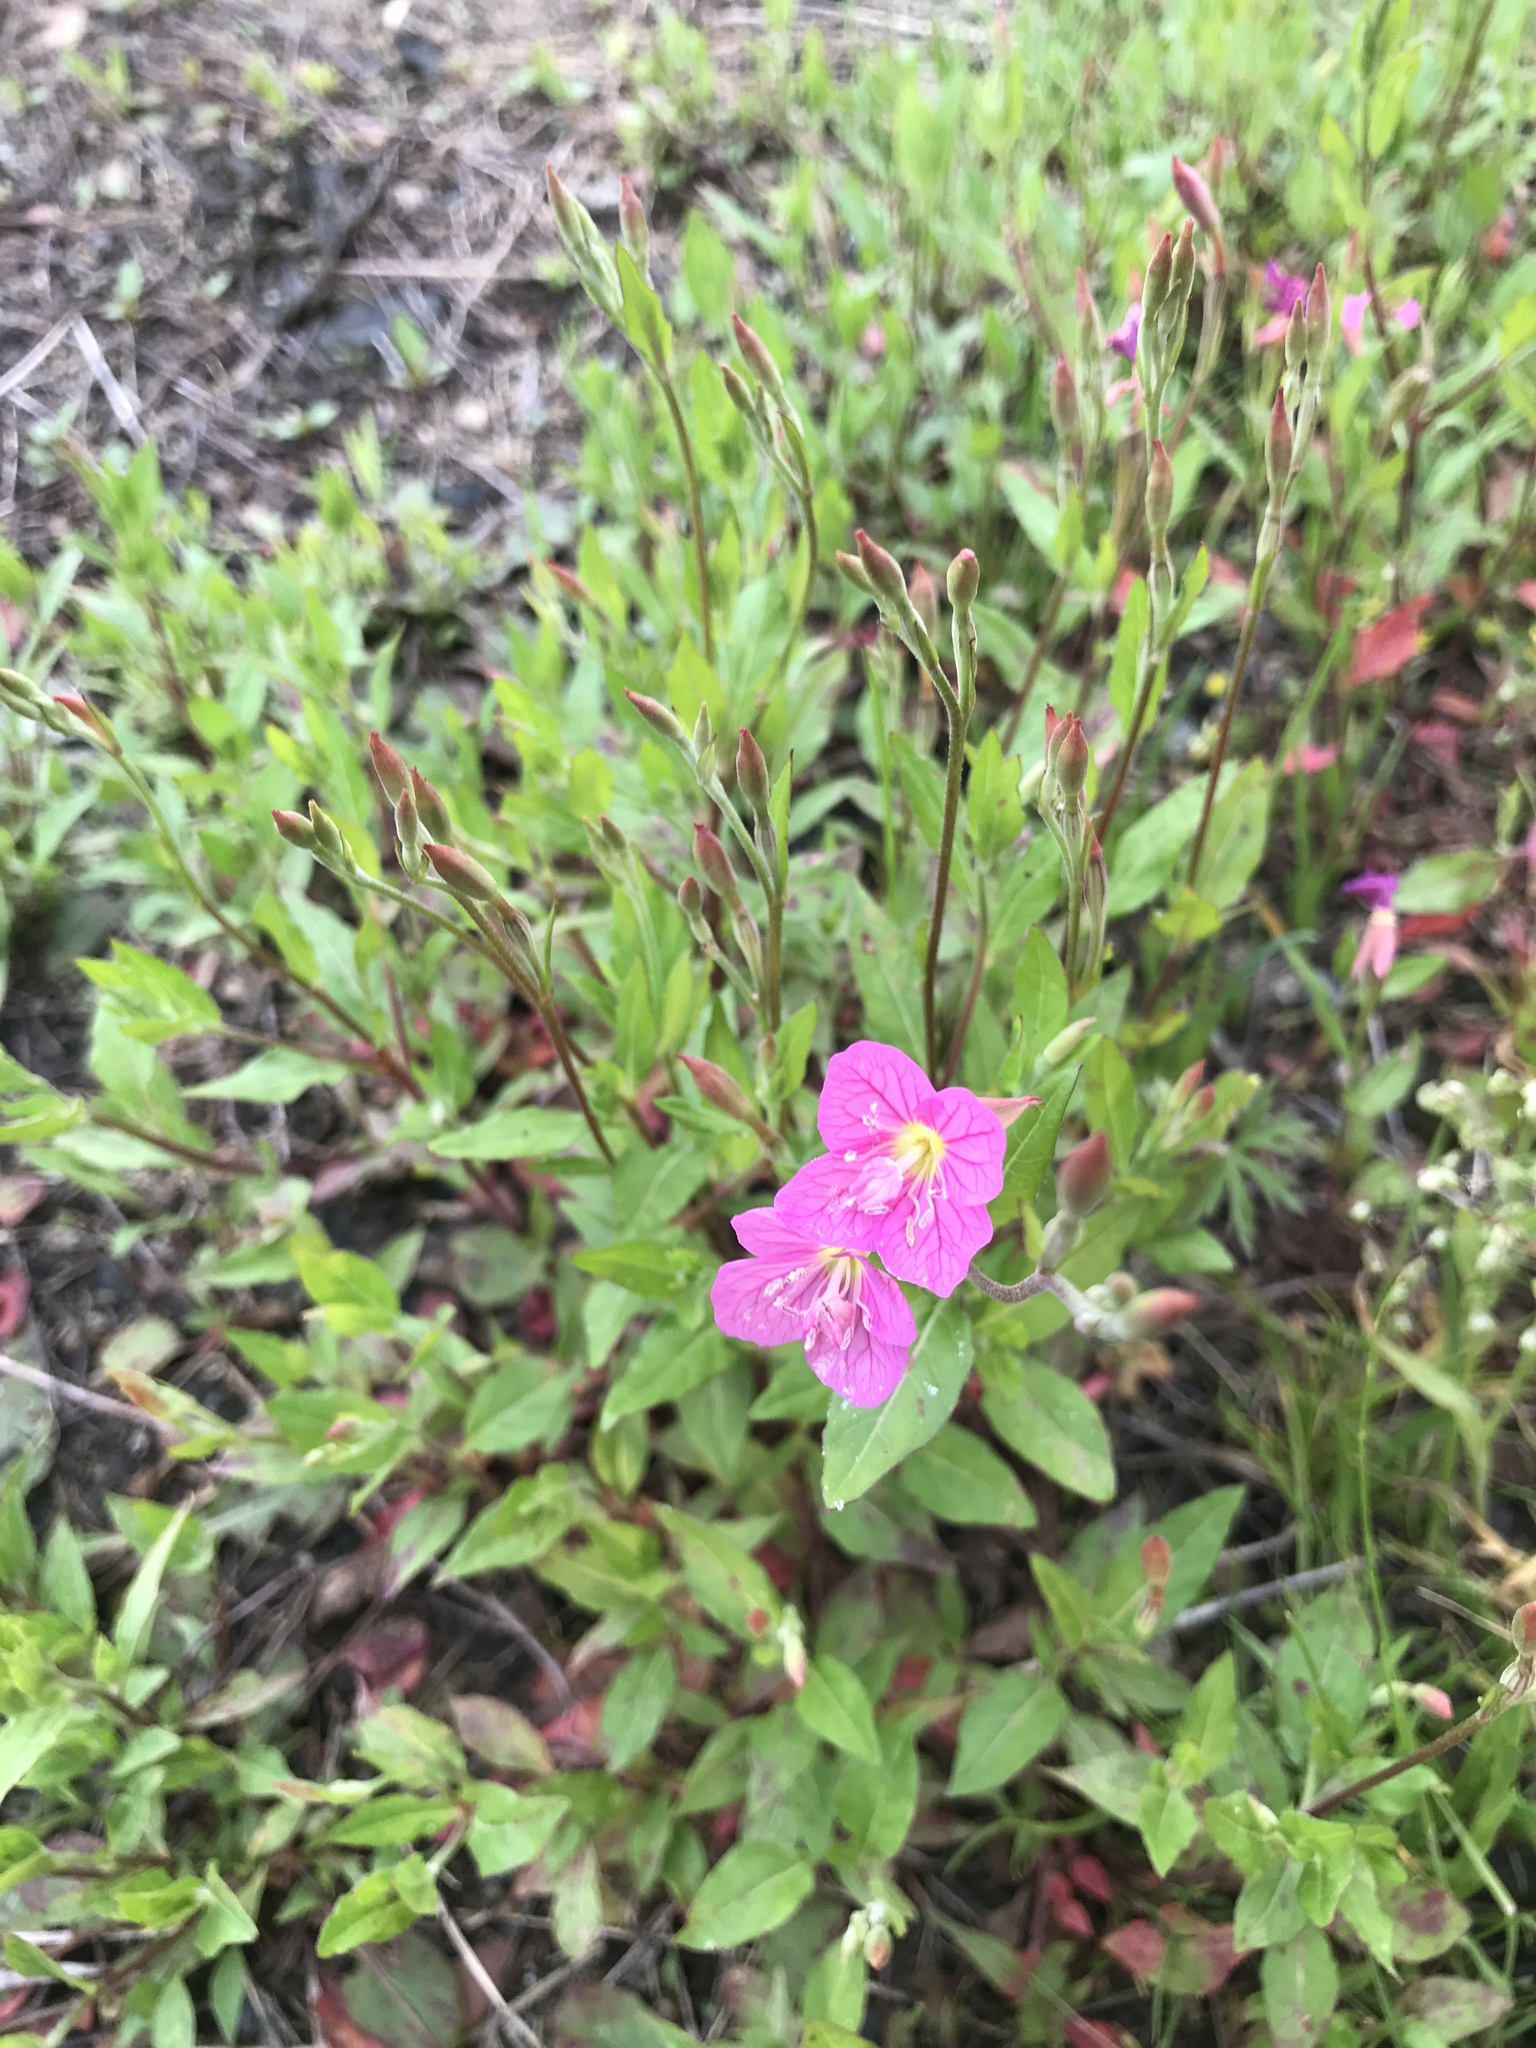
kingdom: Plantae
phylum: Tracheophyta
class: Magnoliopsida
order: Myrtales
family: Onagraceae
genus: Oenothera
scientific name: Oenothera rosea
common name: Rosy evening-primrose
